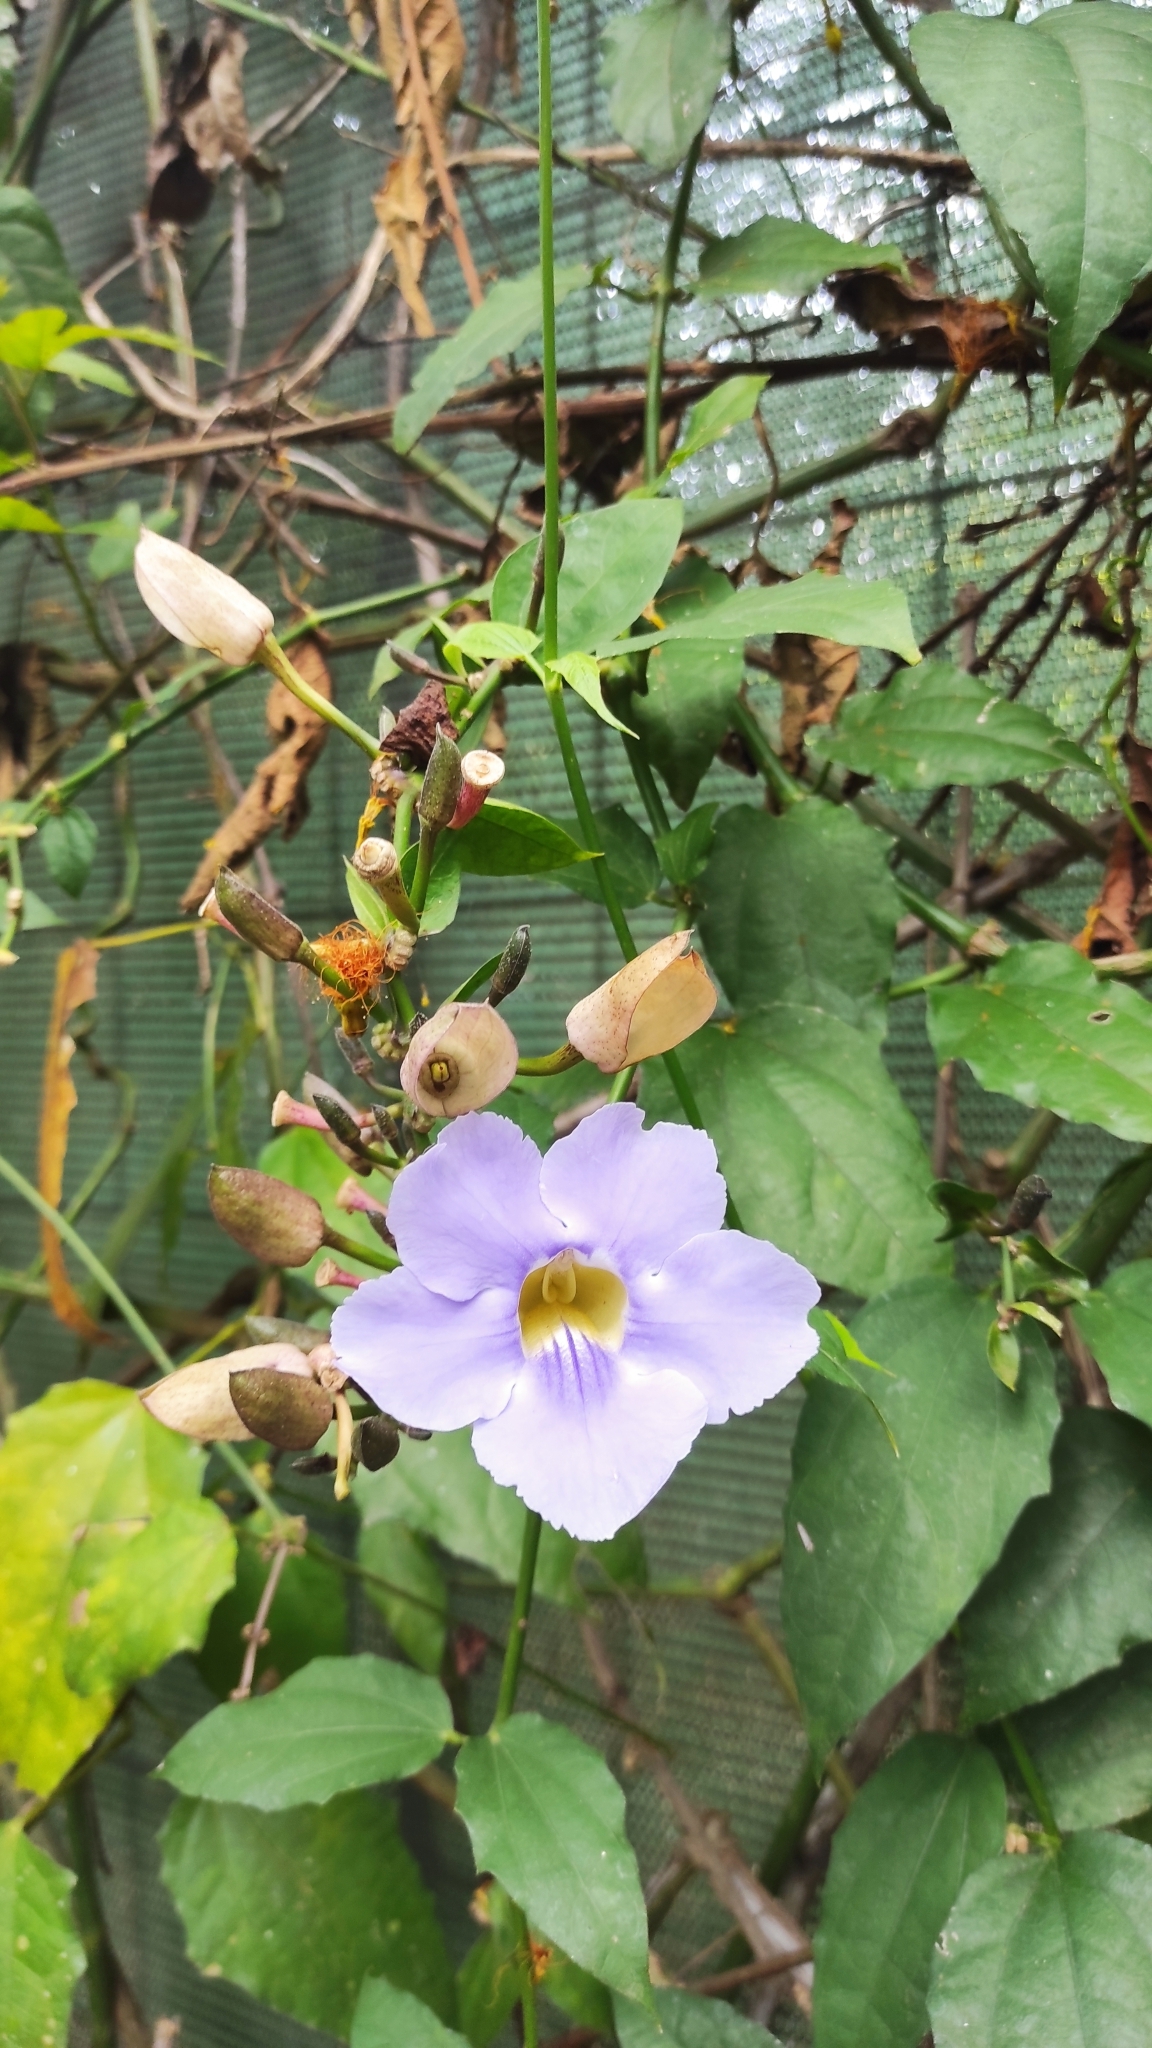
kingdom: Plantae
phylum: Tracheophyta
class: Magnoliopsida
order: Lamiales
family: Acanthaceae
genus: Thunbergia
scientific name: Thunbergia grandiflora
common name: Bengal trumpet
